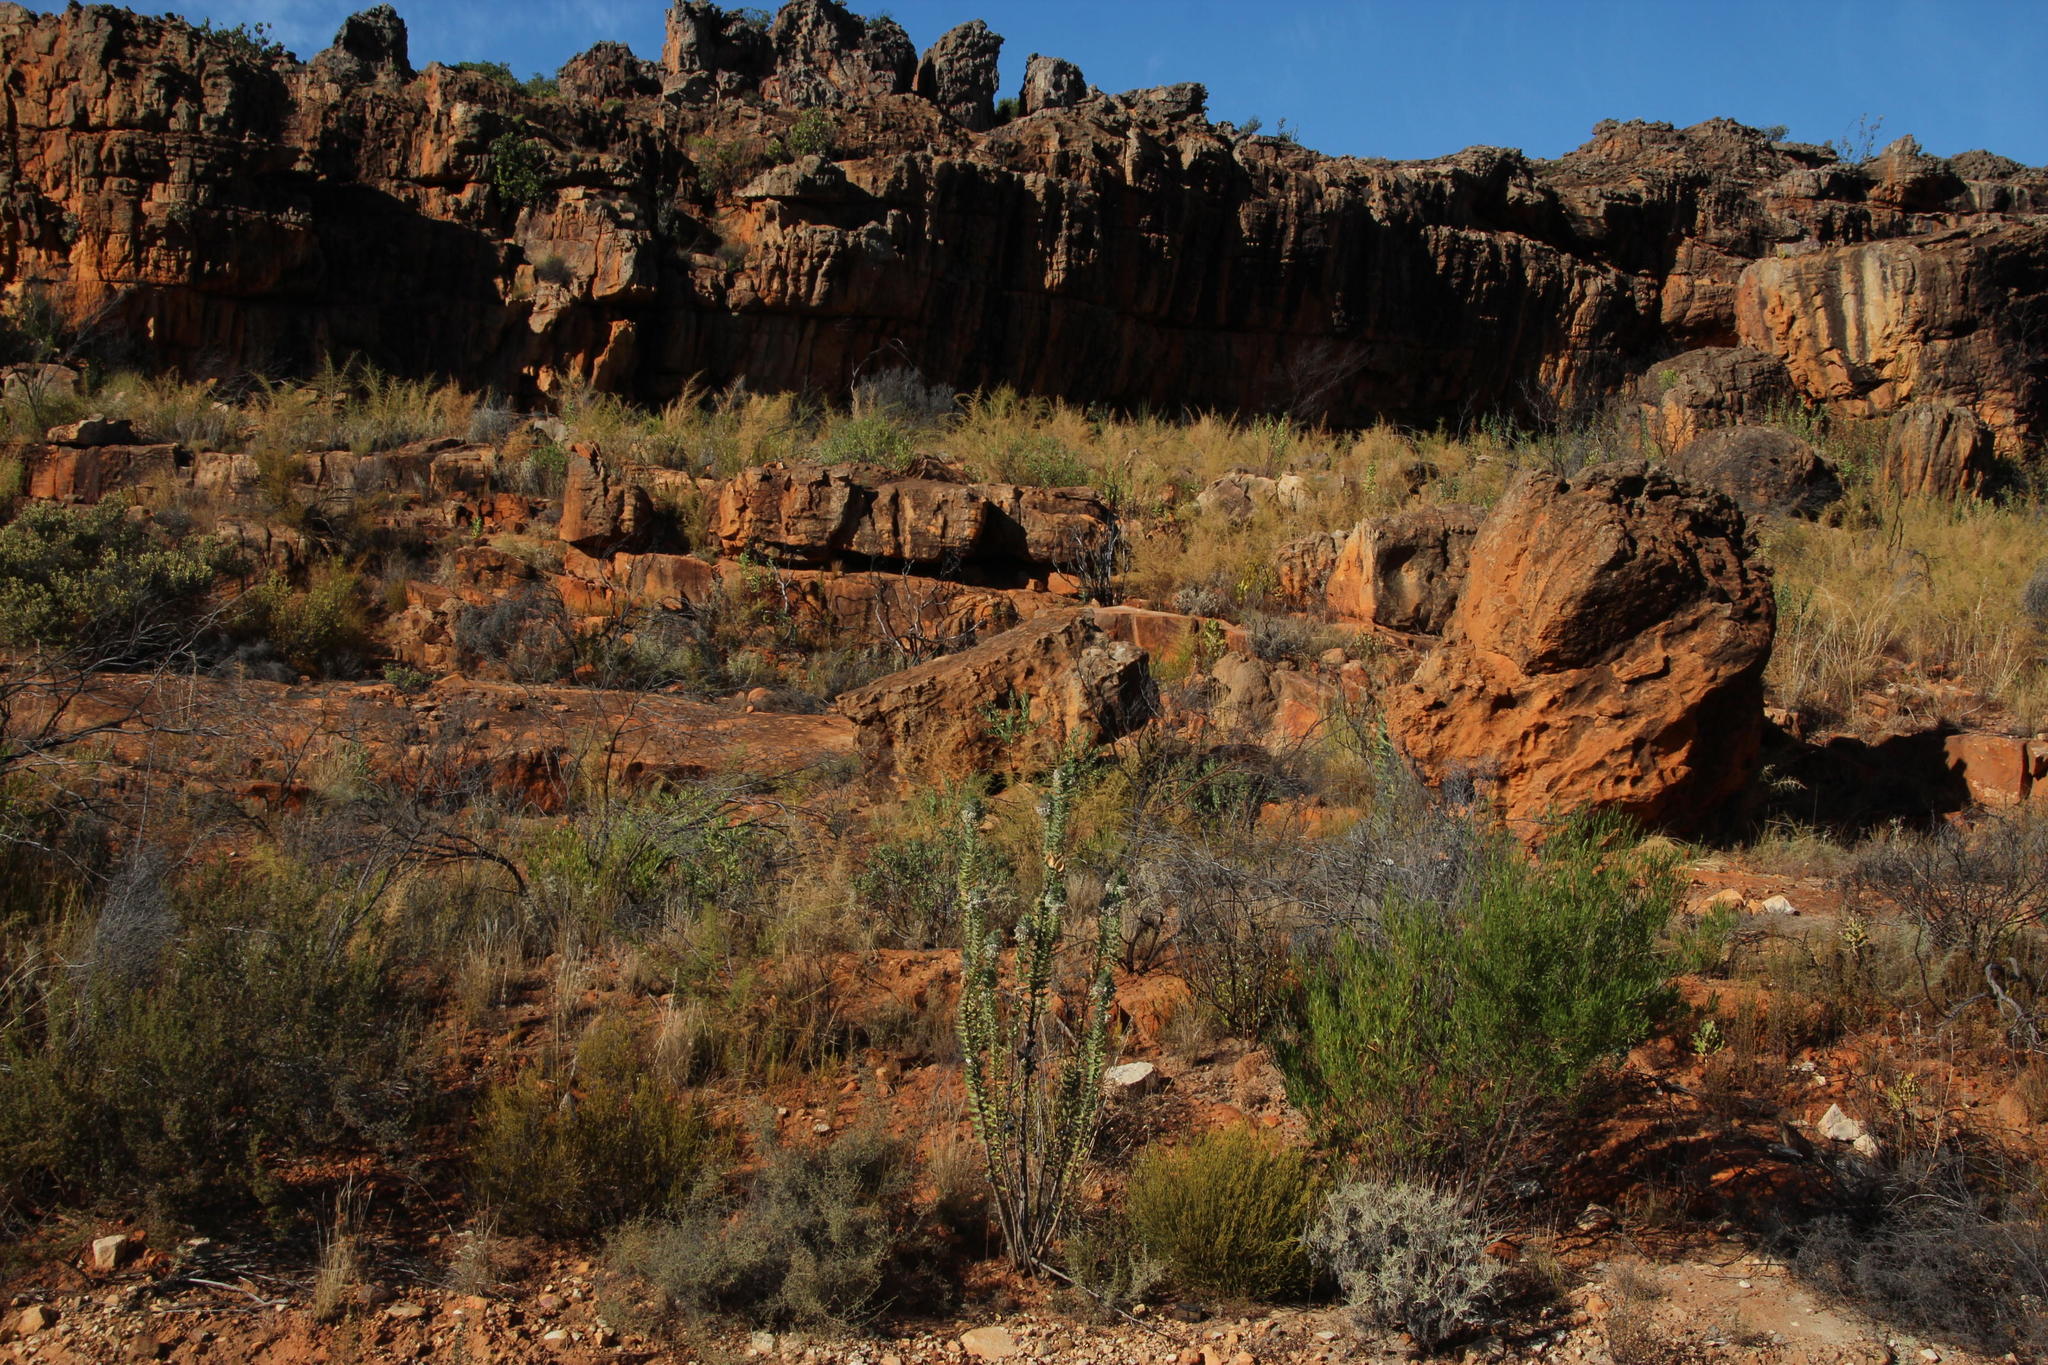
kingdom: Plantae
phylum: Tracheophyta
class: Magnoliopsida
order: Gentianales
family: Apocynaceae
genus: Gomphocarpus
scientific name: Gomphocarpus cancellatus
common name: Wild cotton
